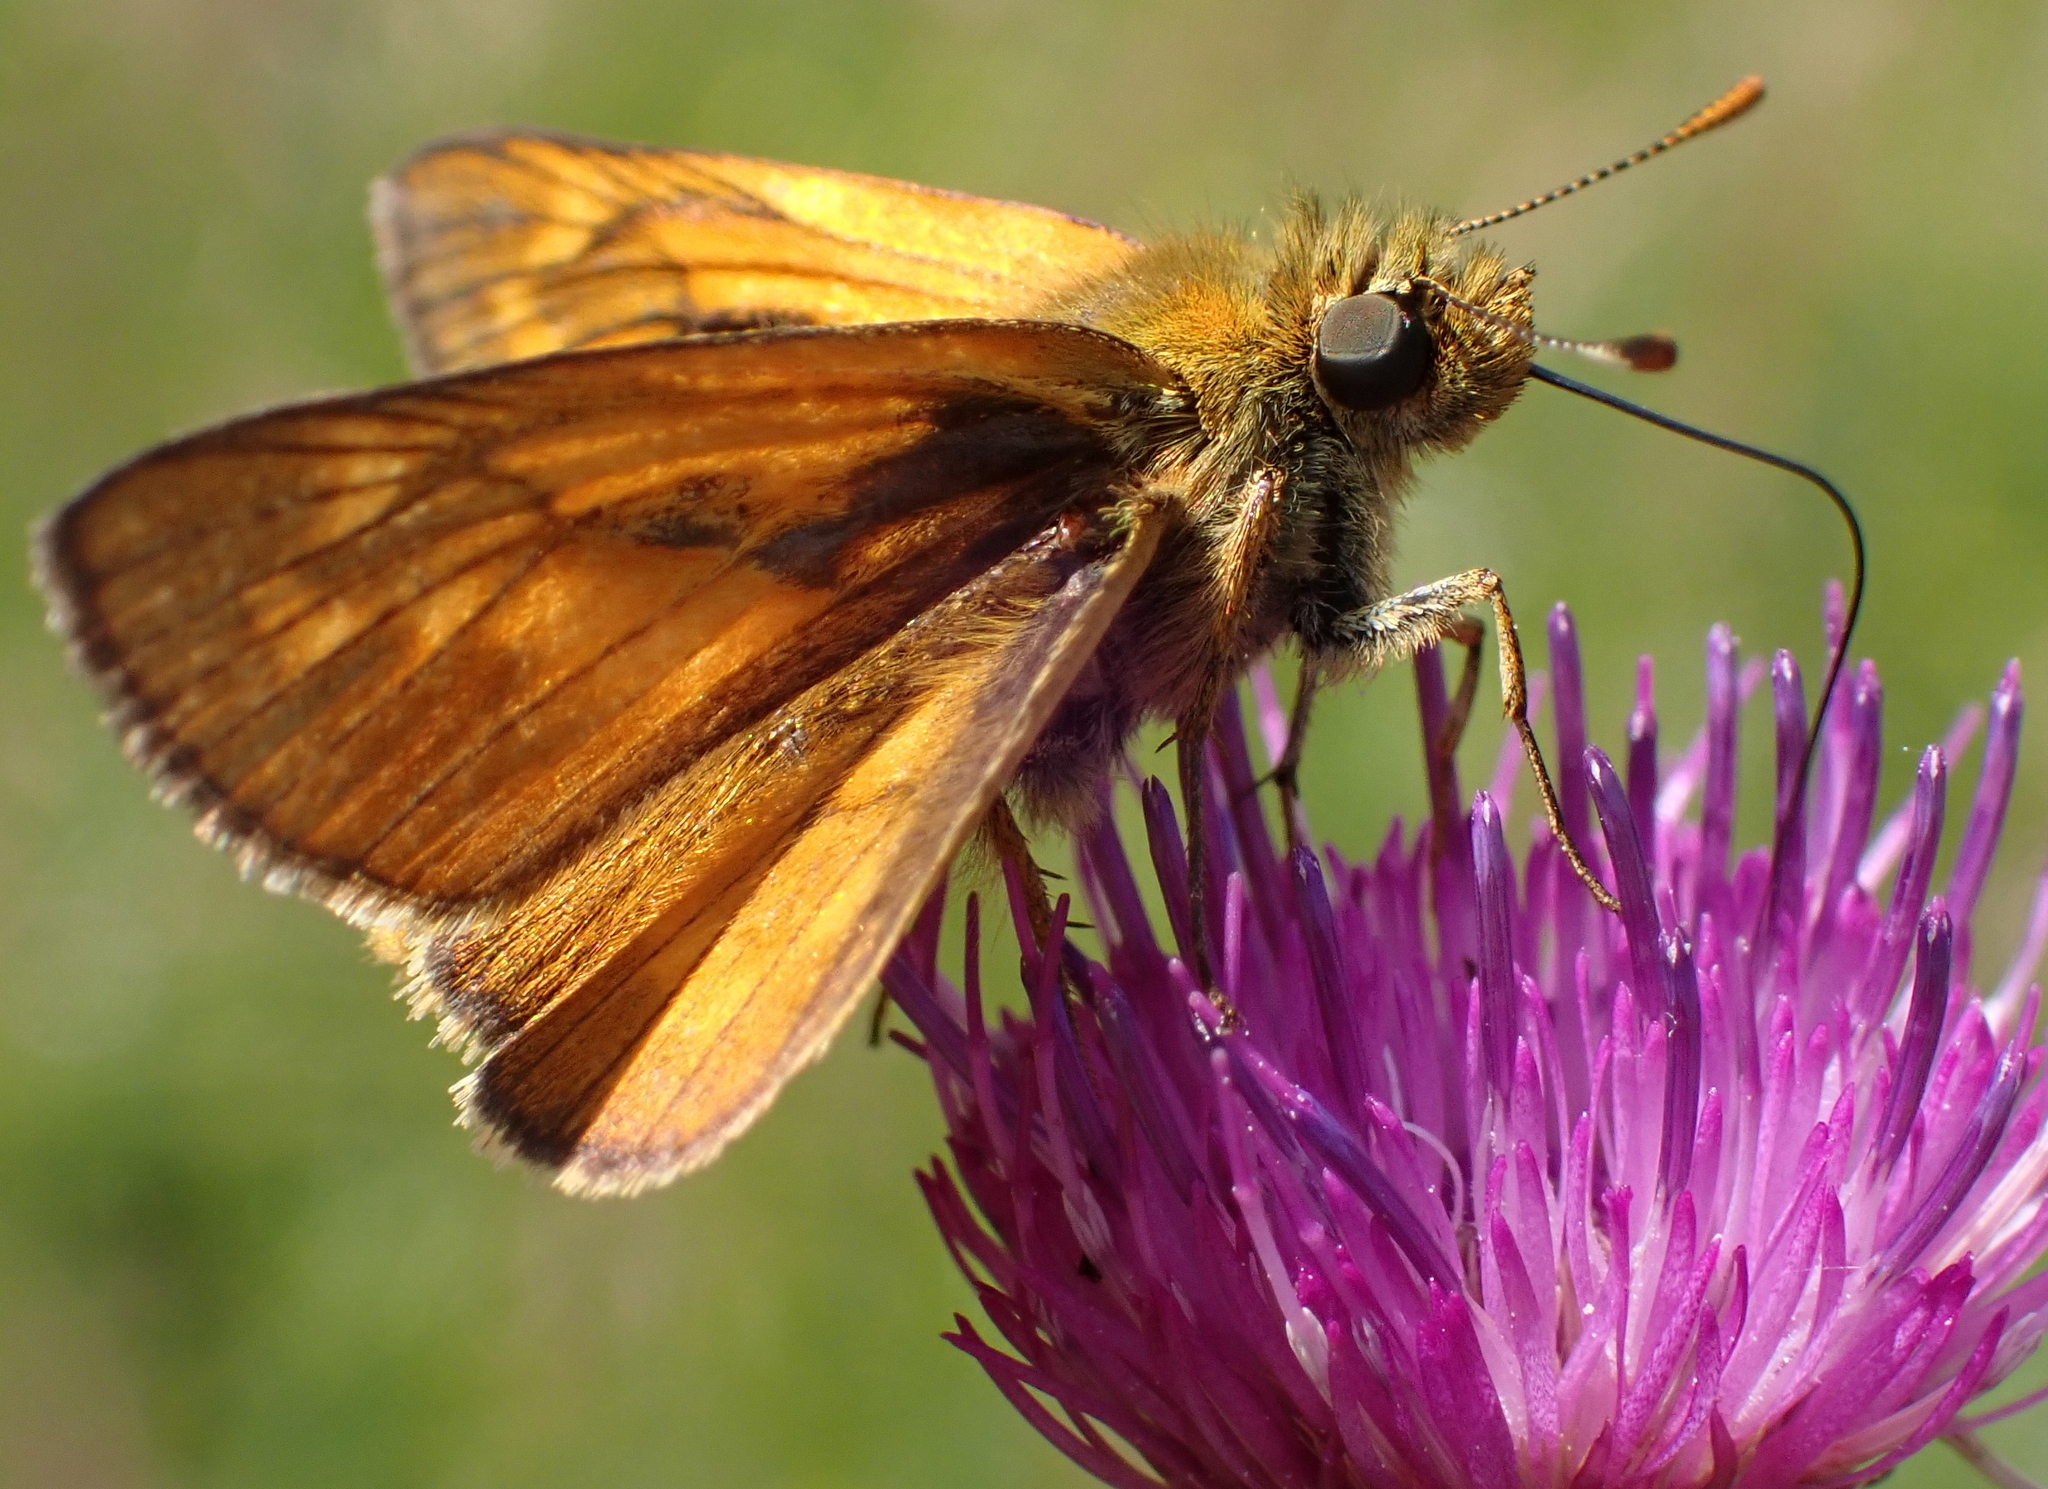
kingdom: Animalia
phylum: Arthropoda
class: Insecta
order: Lepidoptera
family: Hesperiidae
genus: Ochlodes
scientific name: Ochlodes venata
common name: Large skipper
